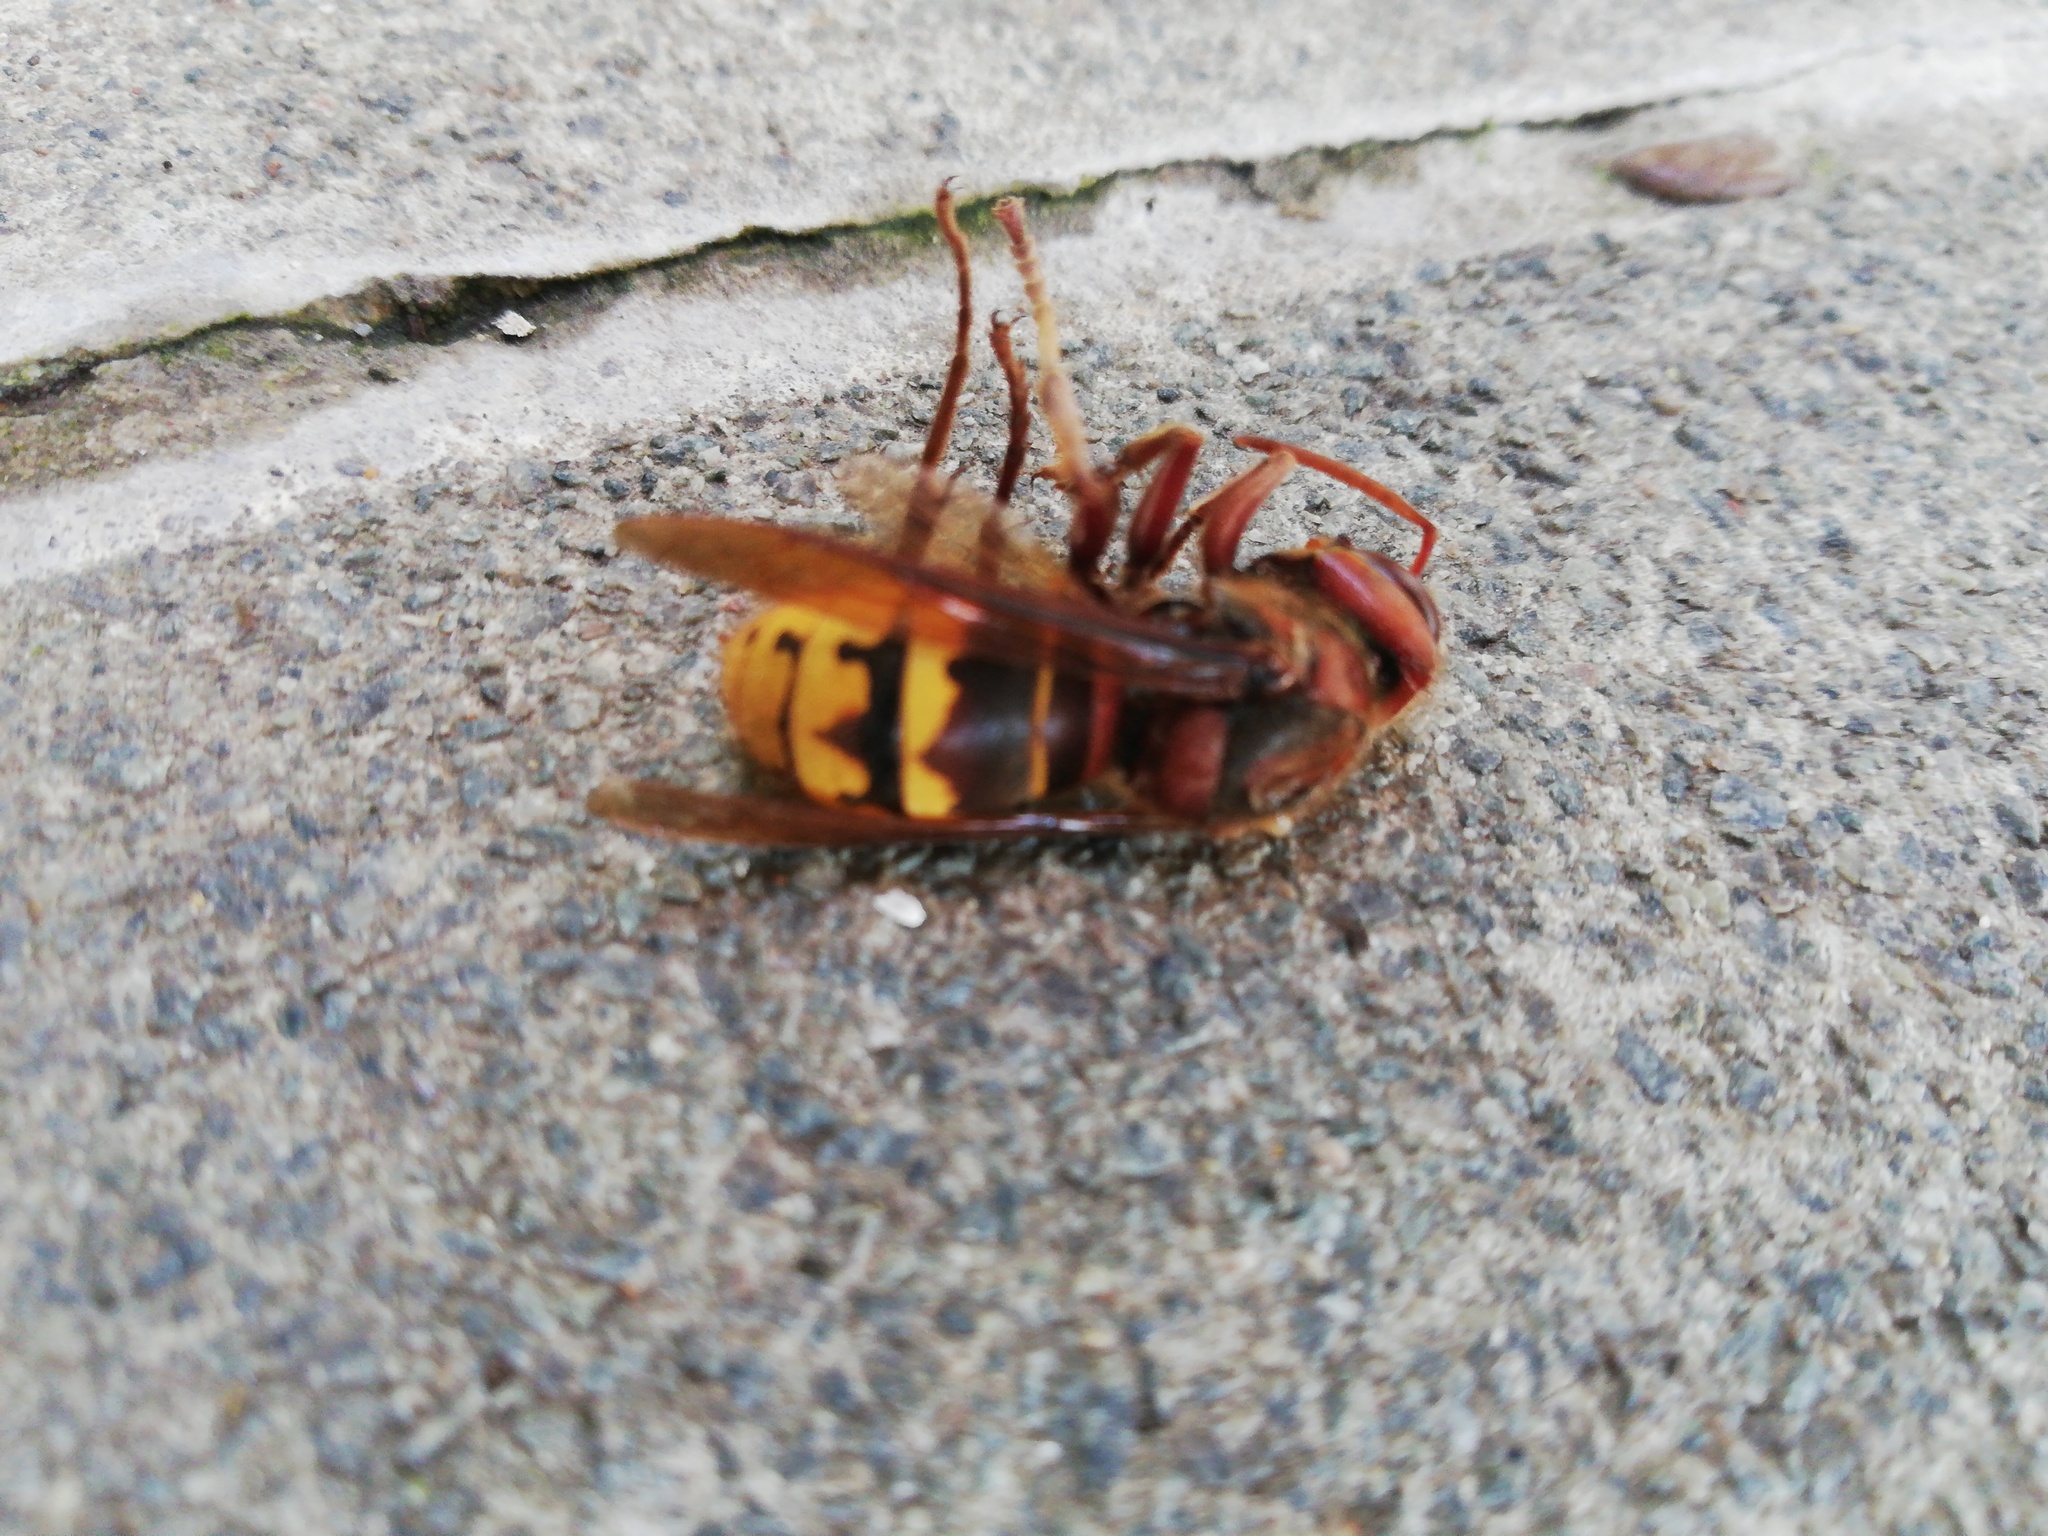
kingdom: Animalia
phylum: Arthropoda
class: Insecta
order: Hymenoptera
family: Vespidae
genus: Vespa
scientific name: Vespa crabro
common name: Hornet
